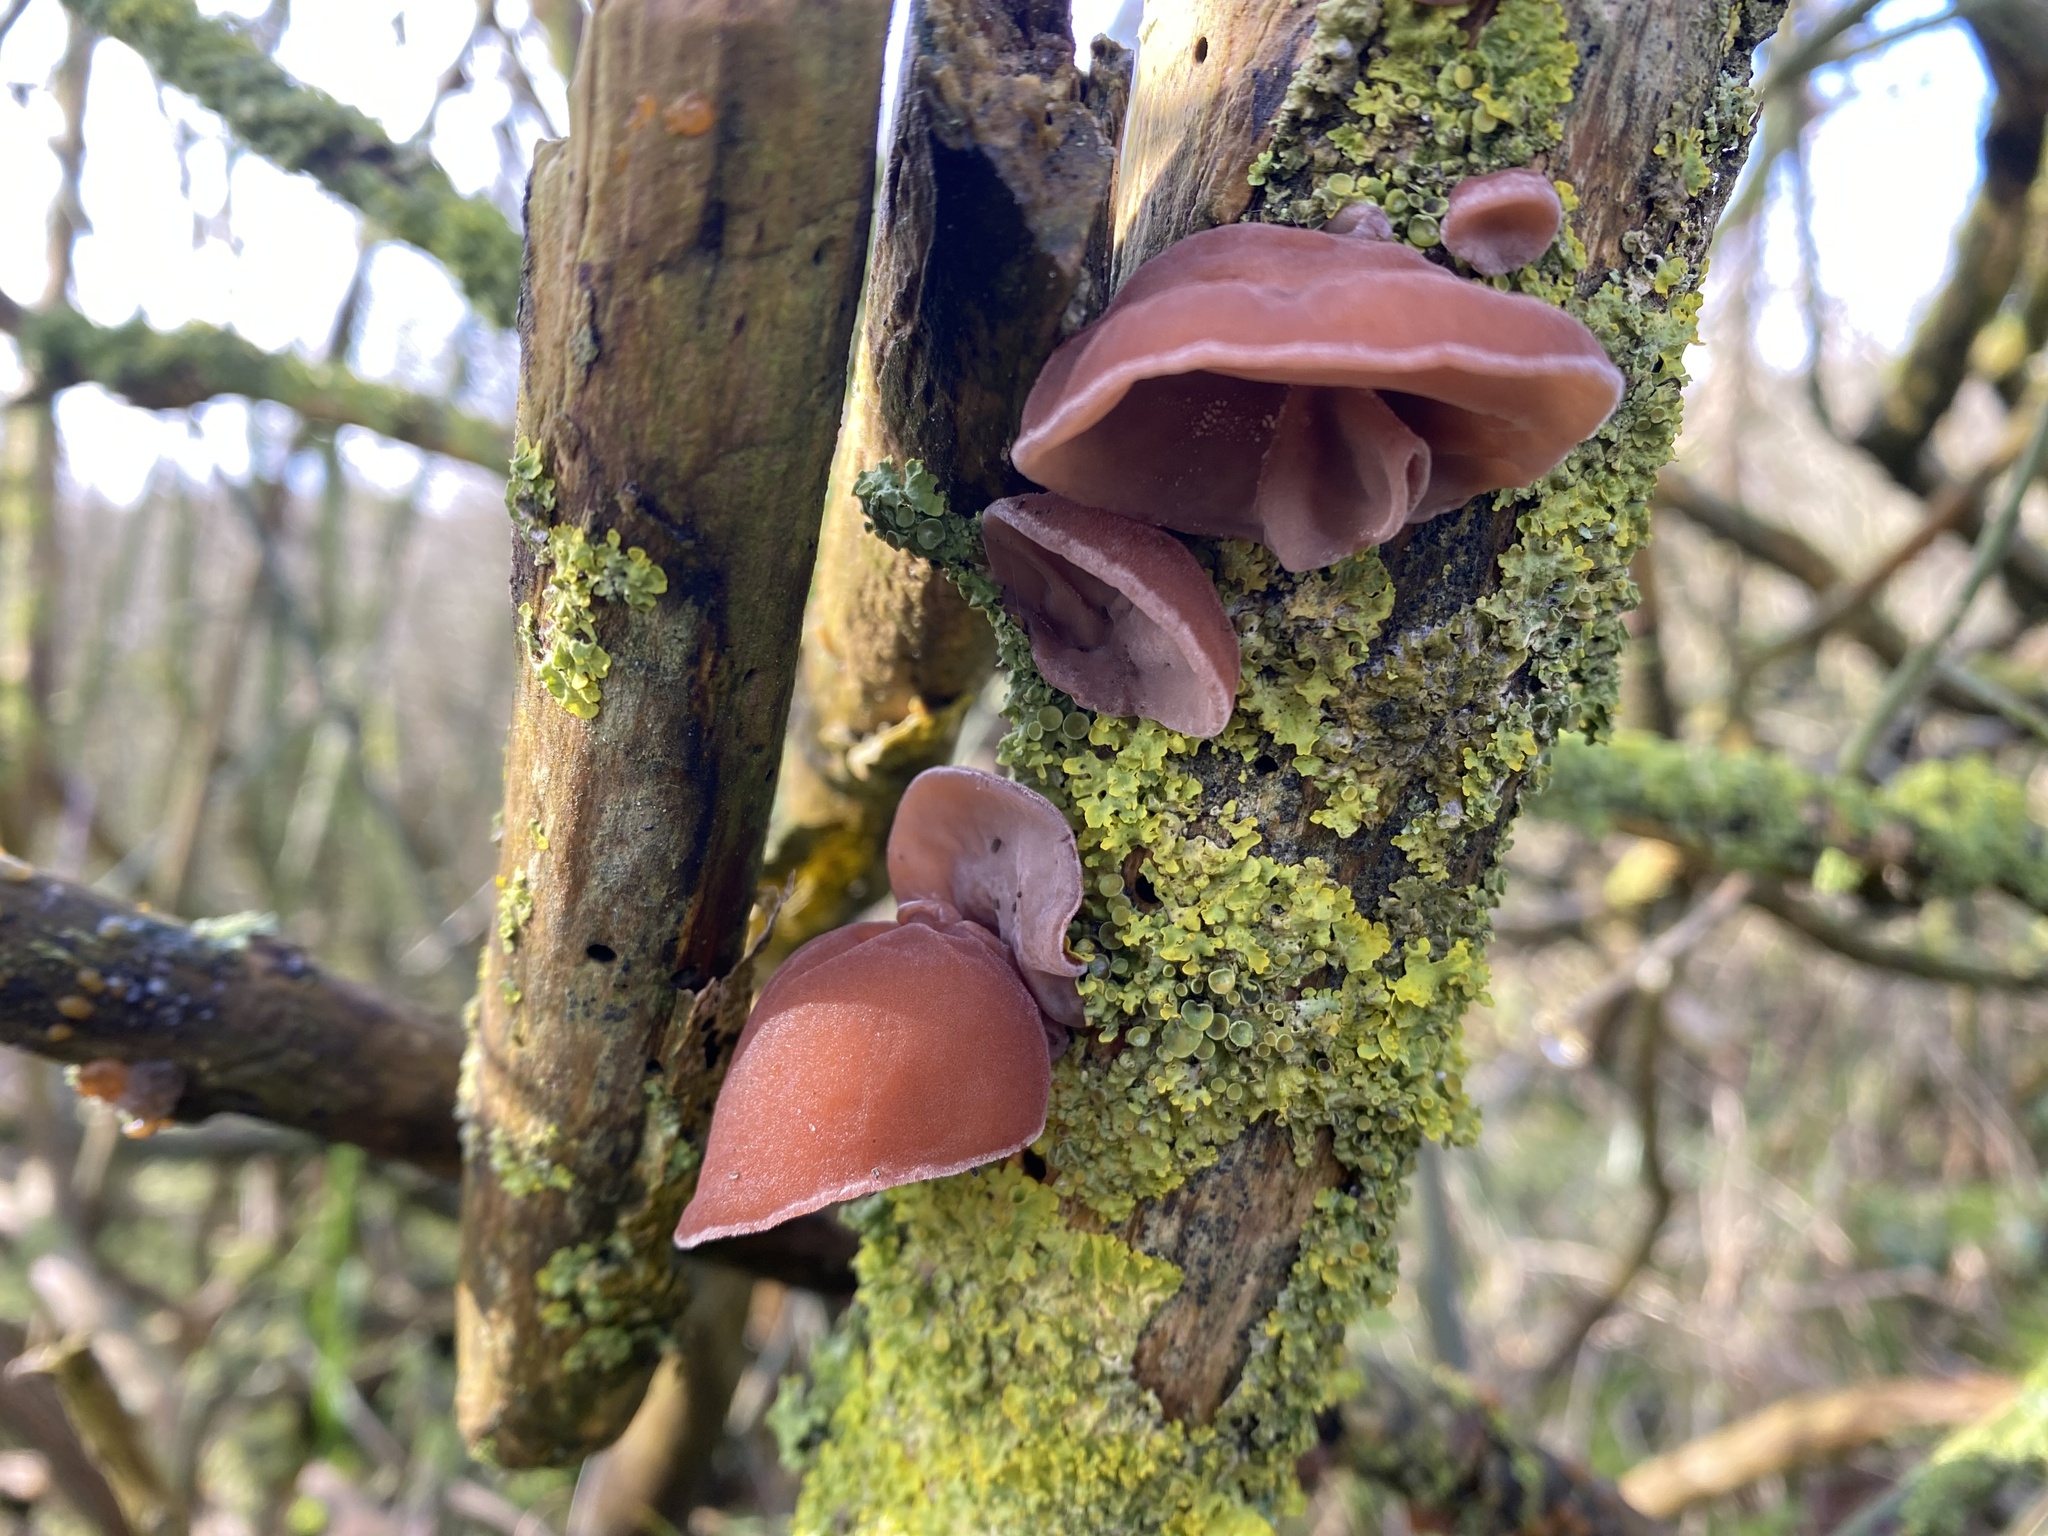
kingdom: Fungi
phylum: Basidiomycota
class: Agaricomycetes
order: Auriculariales
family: Auriculariaceae
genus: Auricularia
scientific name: Auricularia auricula-judae
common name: Jelly ear
